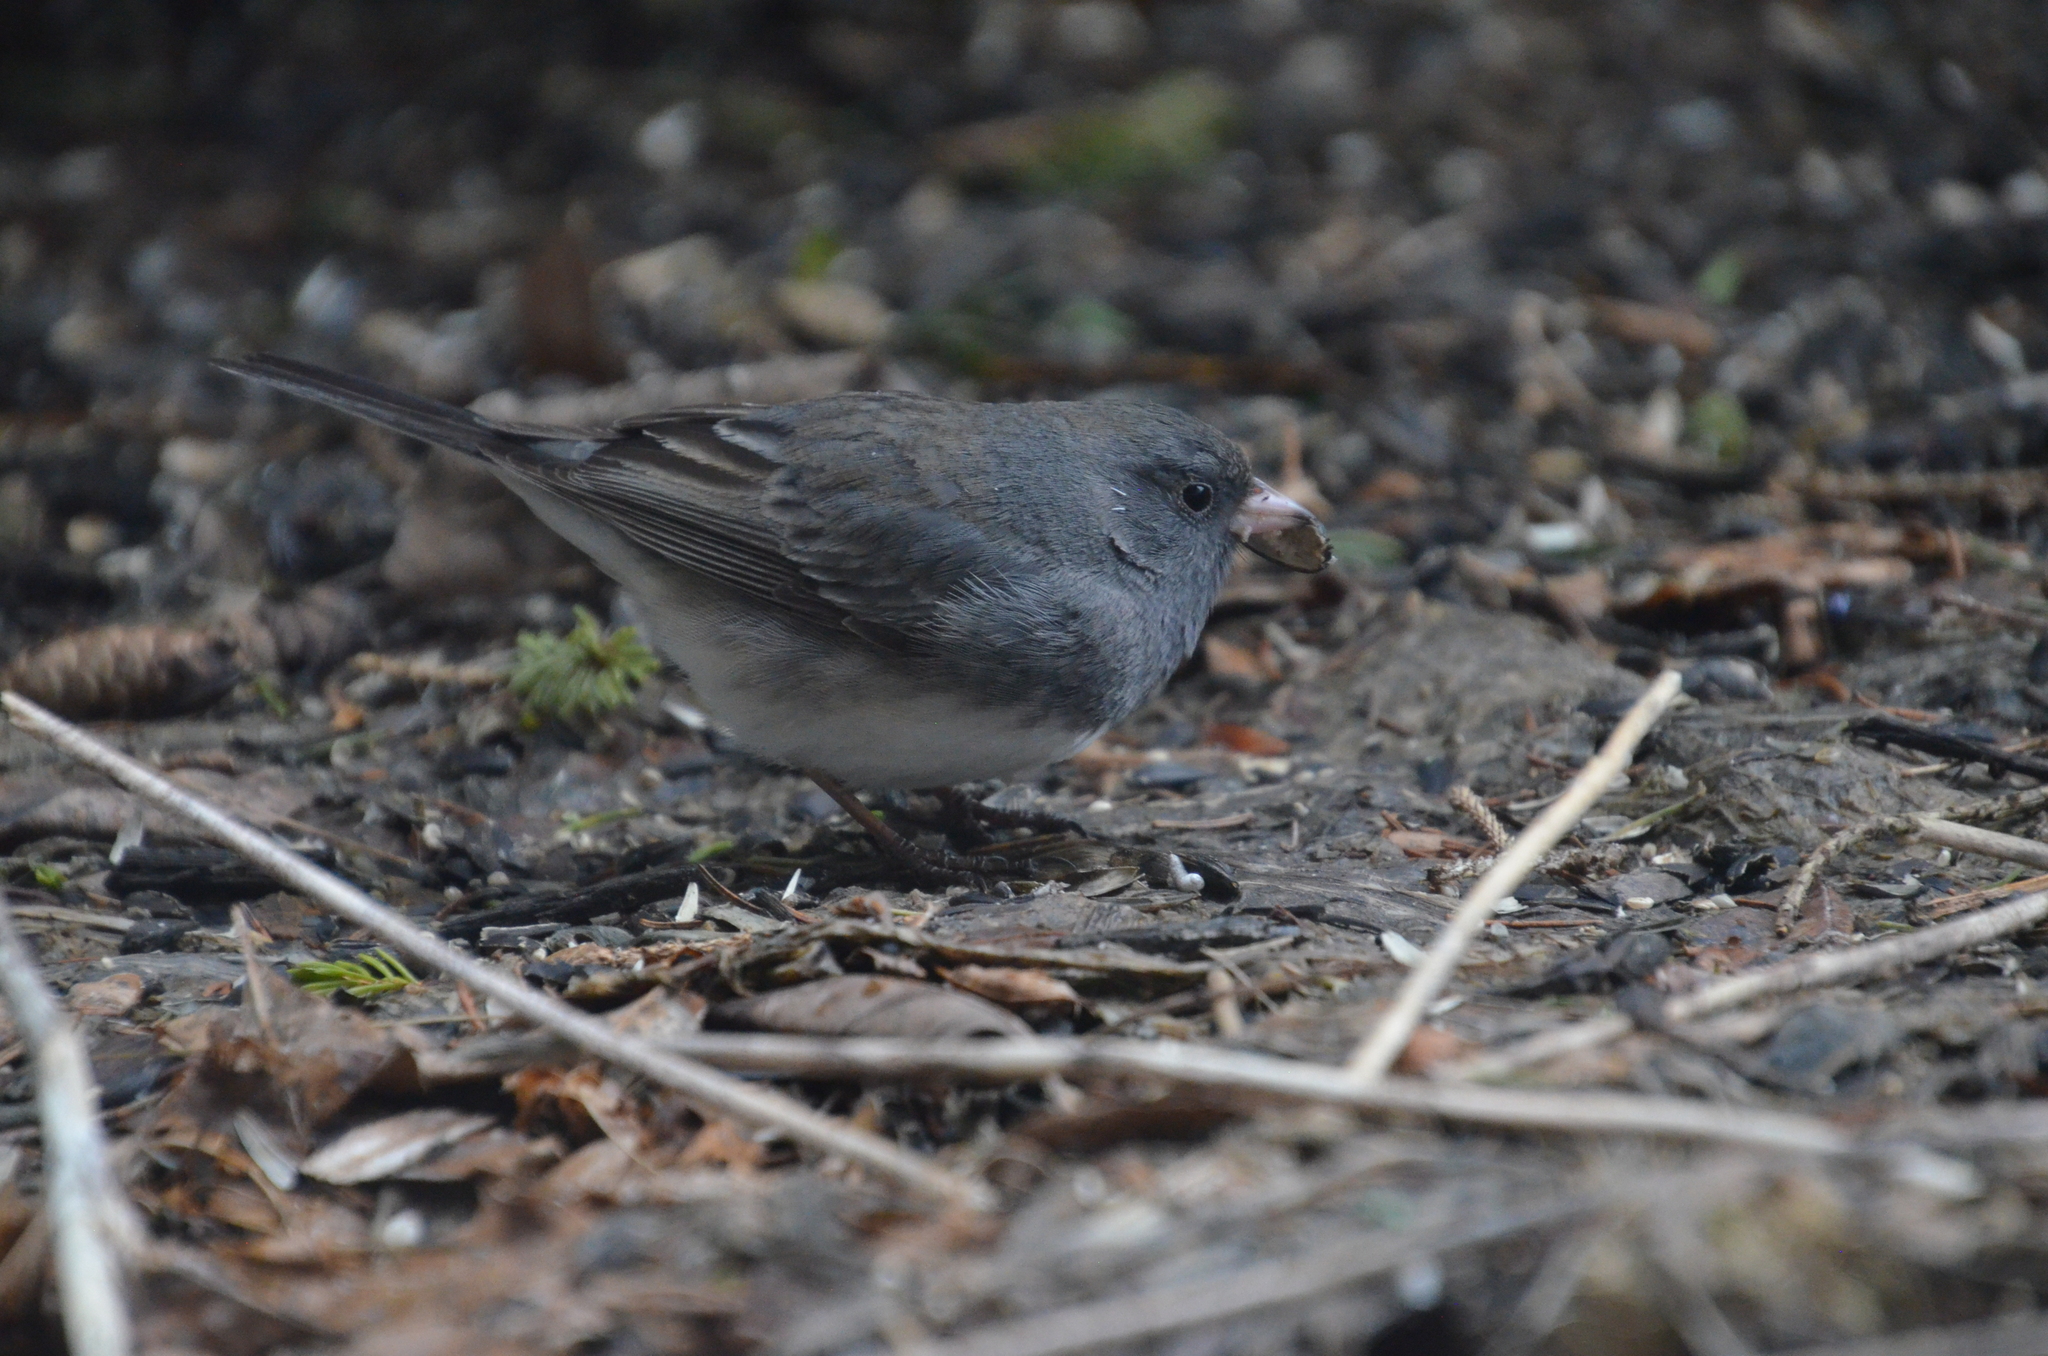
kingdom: Animalia
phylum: Chordata
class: Aves
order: Passeriformes
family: Passerellidae
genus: Junco
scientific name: Junco hyemalis
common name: Dark-eyed junco
